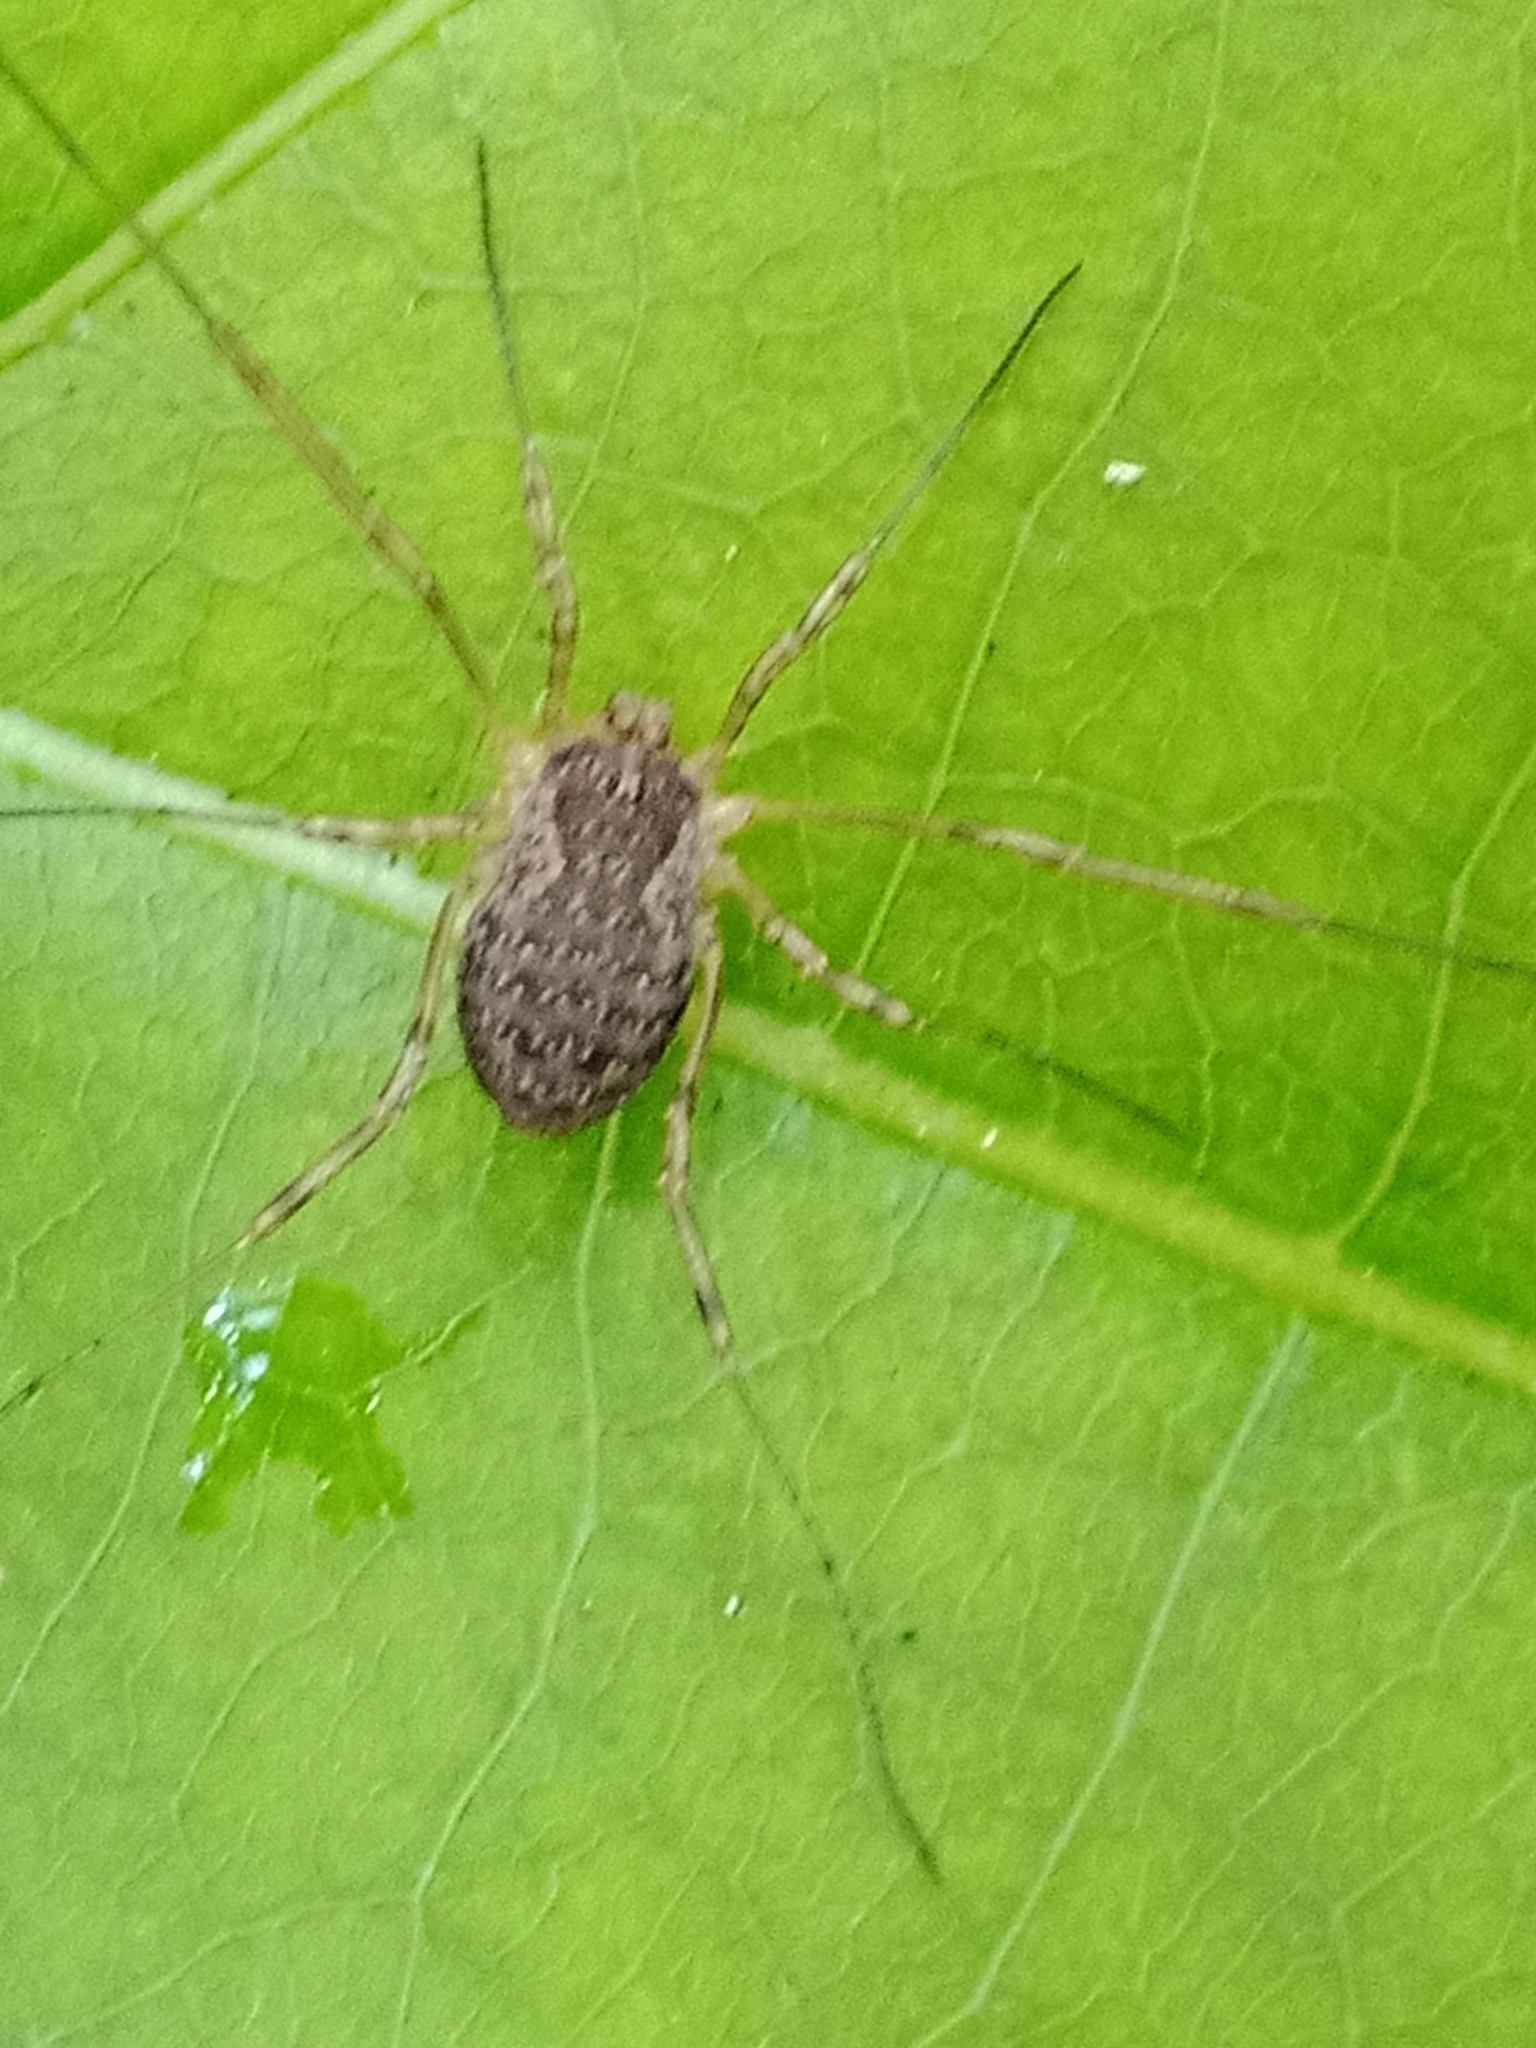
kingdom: Animalia
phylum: Arthropoda
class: Arachnida
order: Opiliones
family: Phalangiidae
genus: Oligolophus
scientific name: Oligolophus tridens
